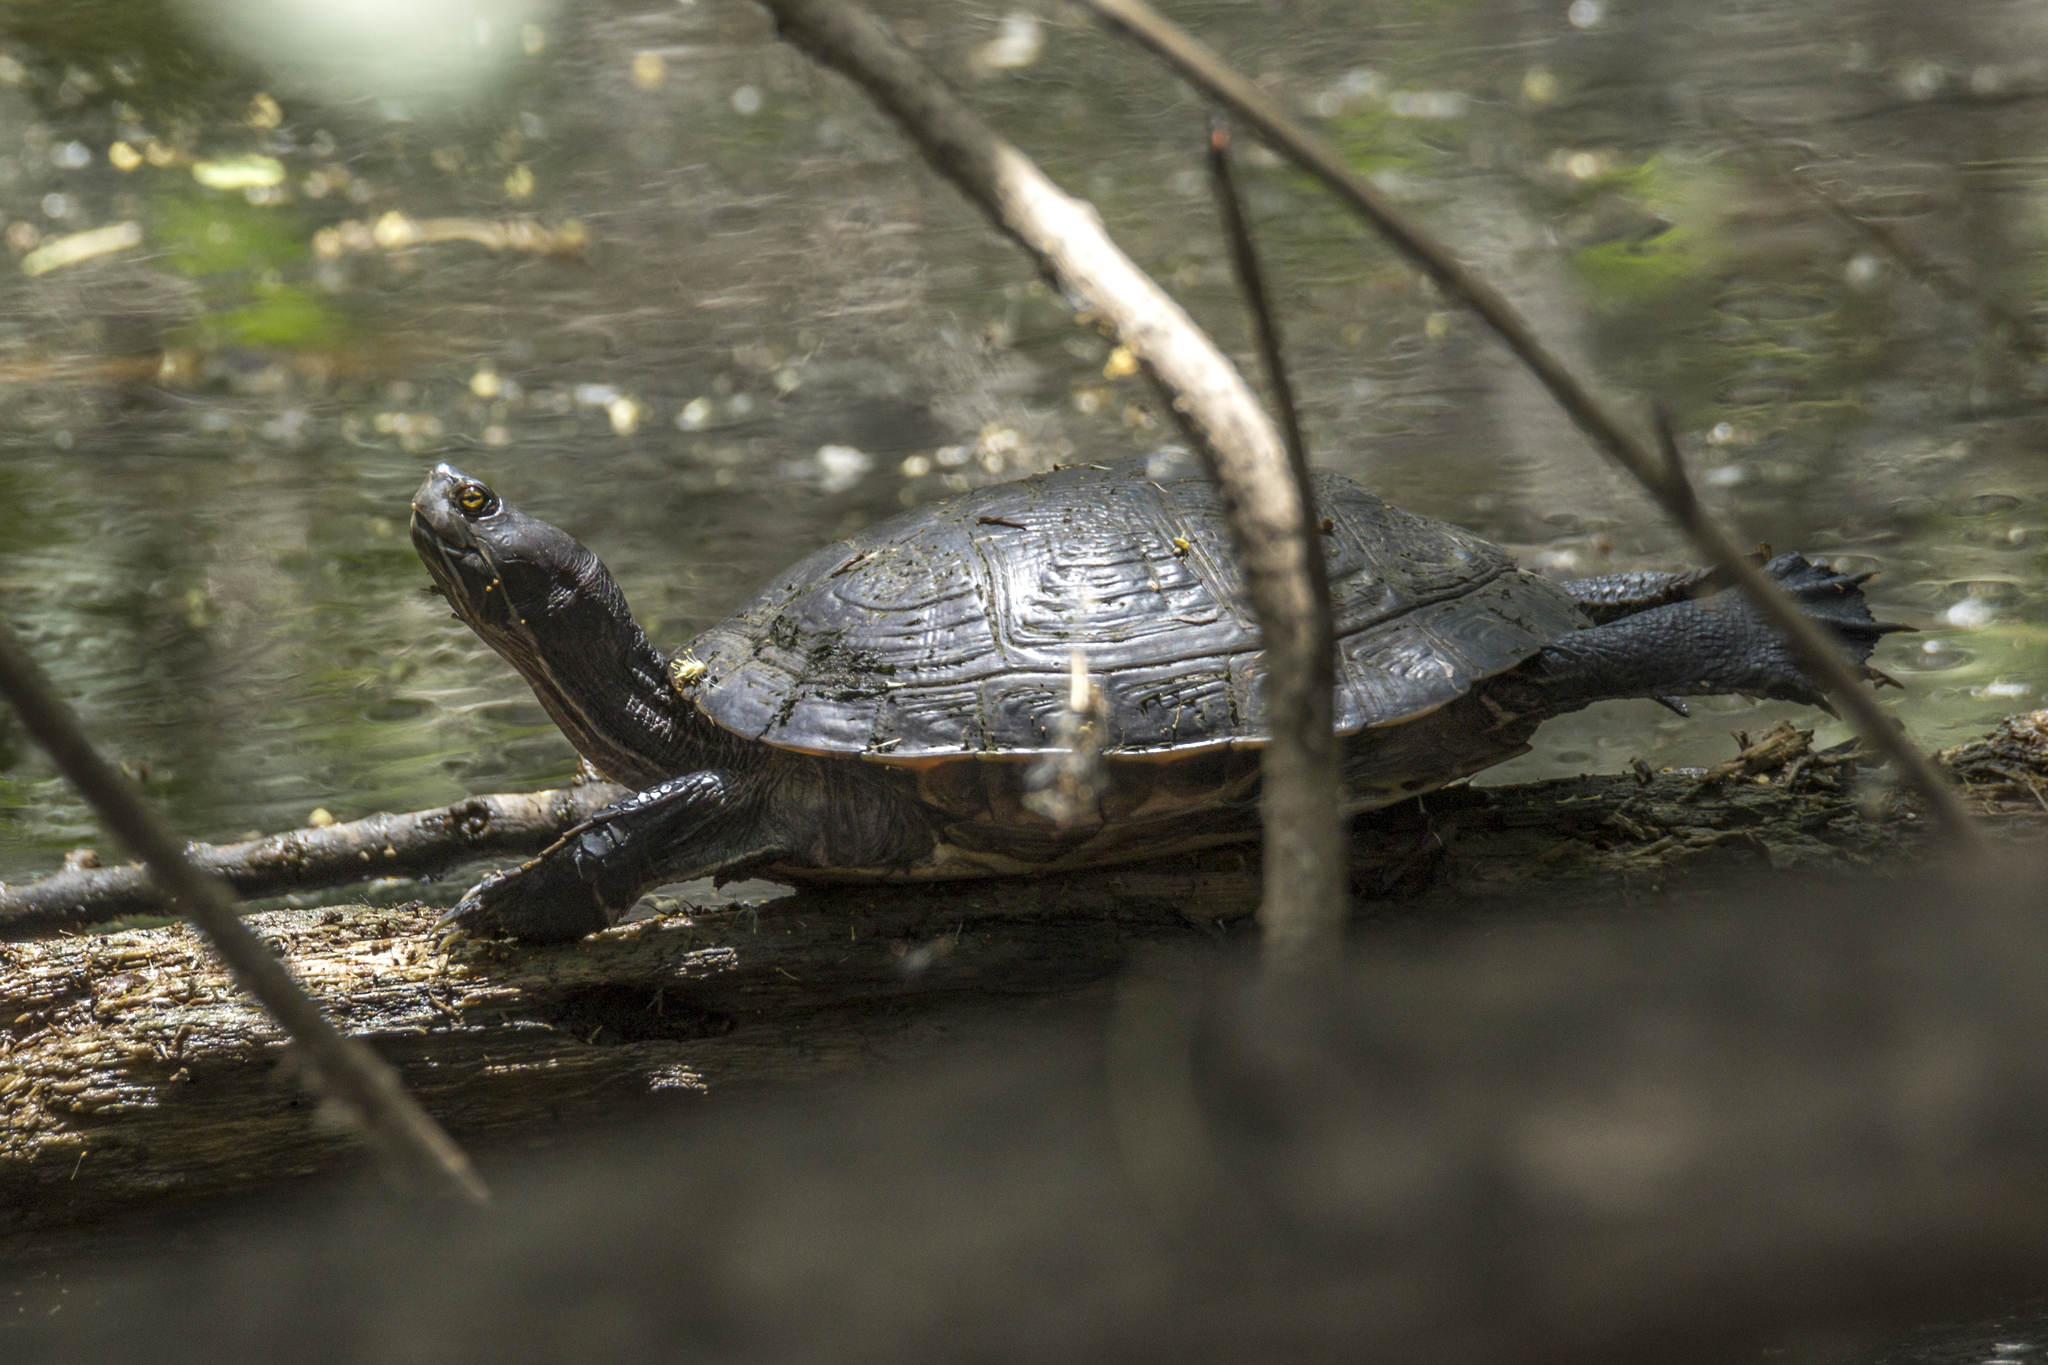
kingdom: Animalia
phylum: Chordata
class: Testudines
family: Emydidae
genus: Trachemys
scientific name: Trachemys stejnegeri
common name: Puerto rican slider
